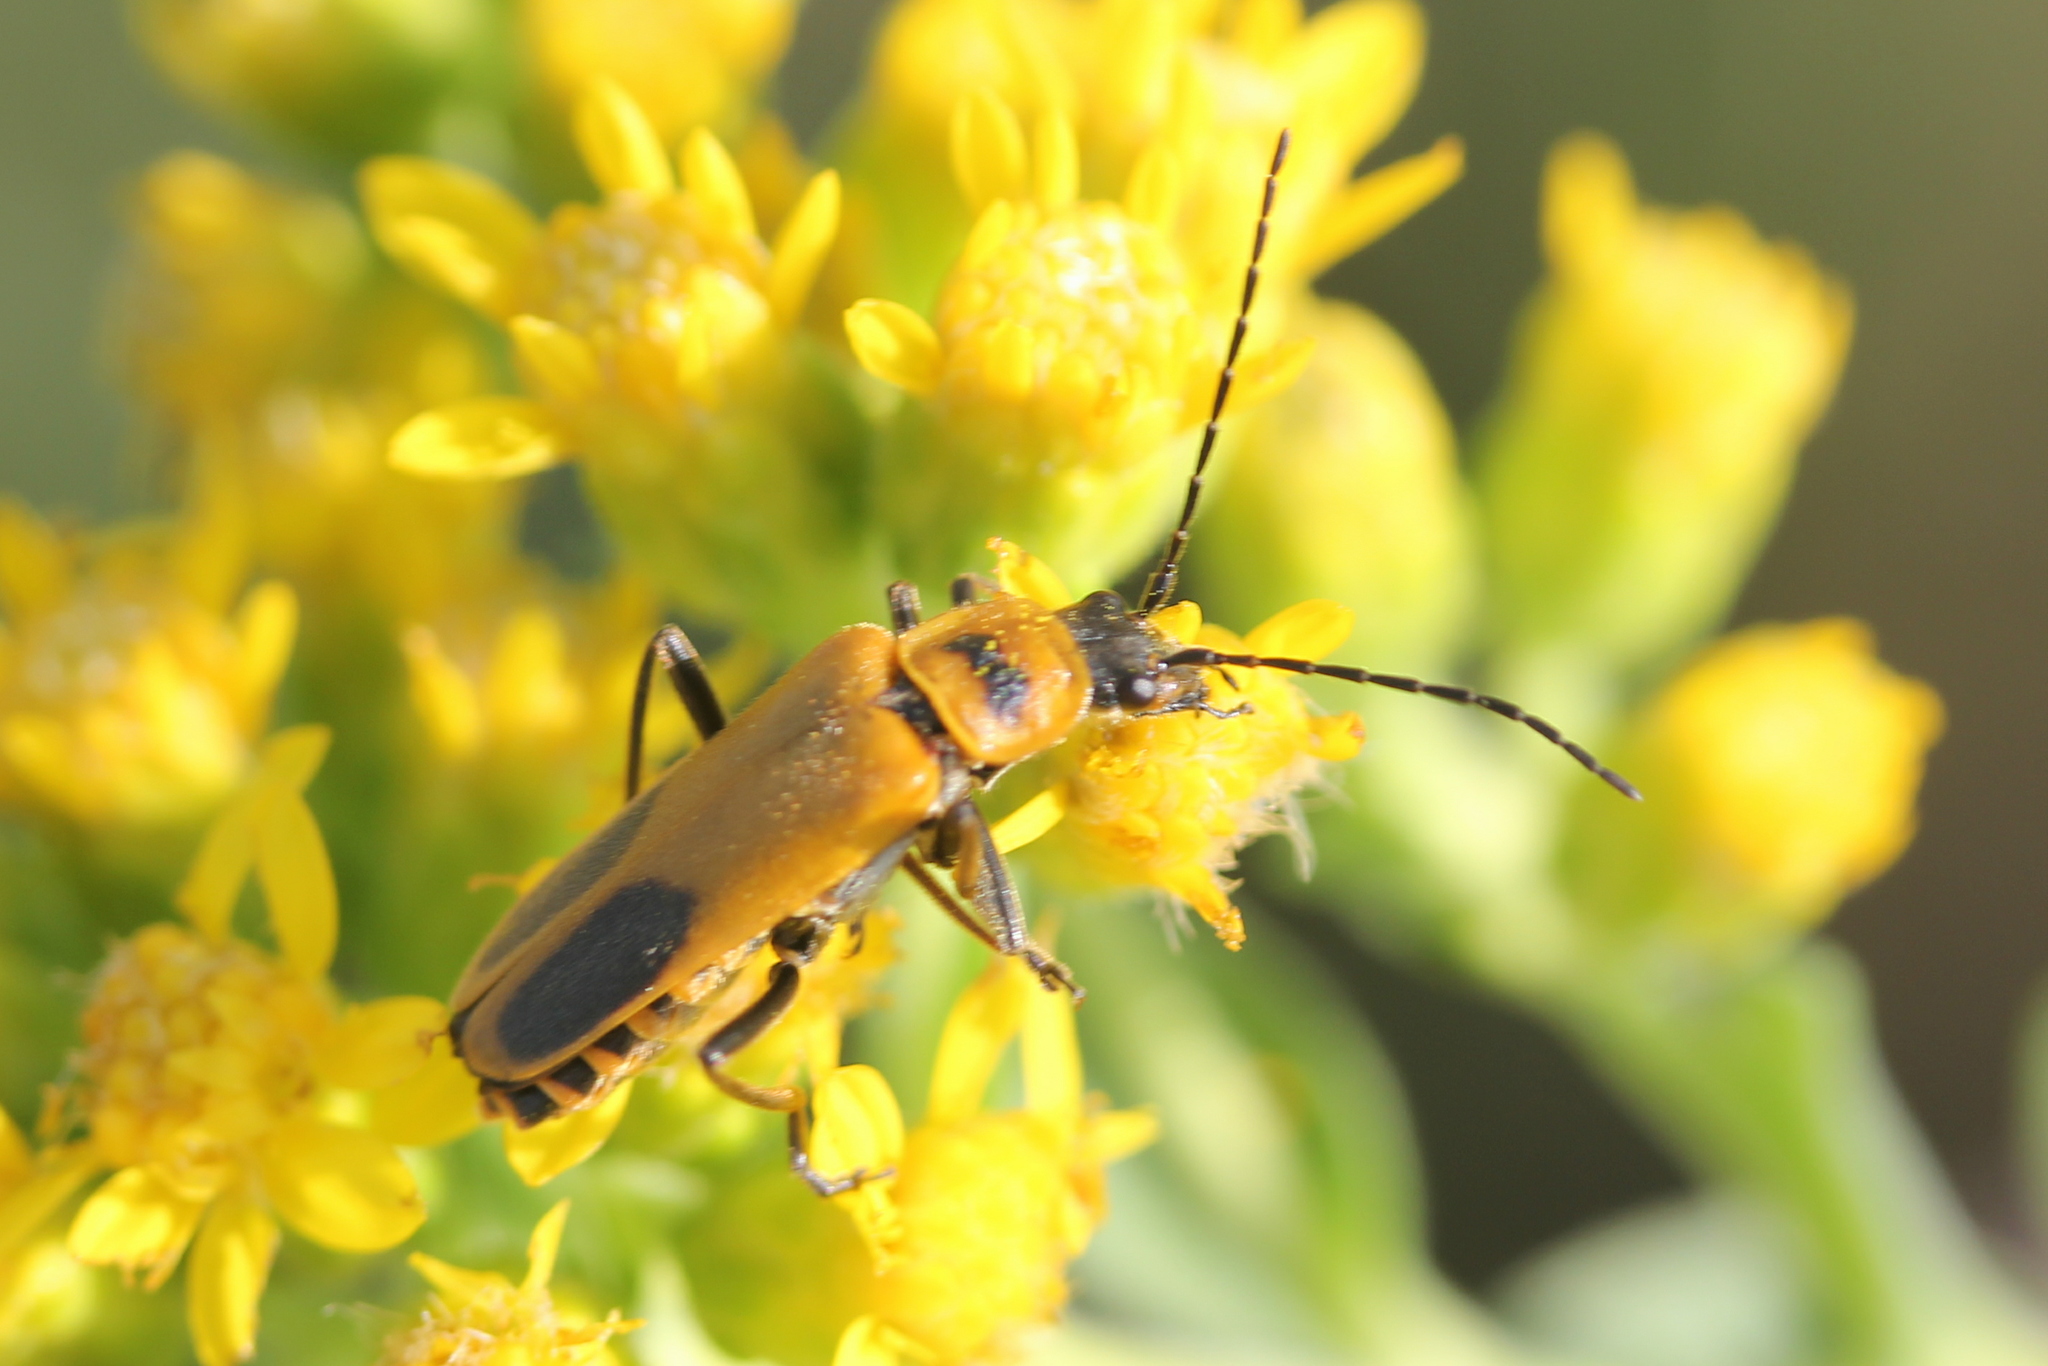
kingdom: Animalia
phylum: Arthropoda
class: Insecta
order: Coleoptera
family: Cantharidae
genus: Chauliognathus
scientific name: Chauliognathus pensylvanicus
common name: Goldenrod soldier beetle
